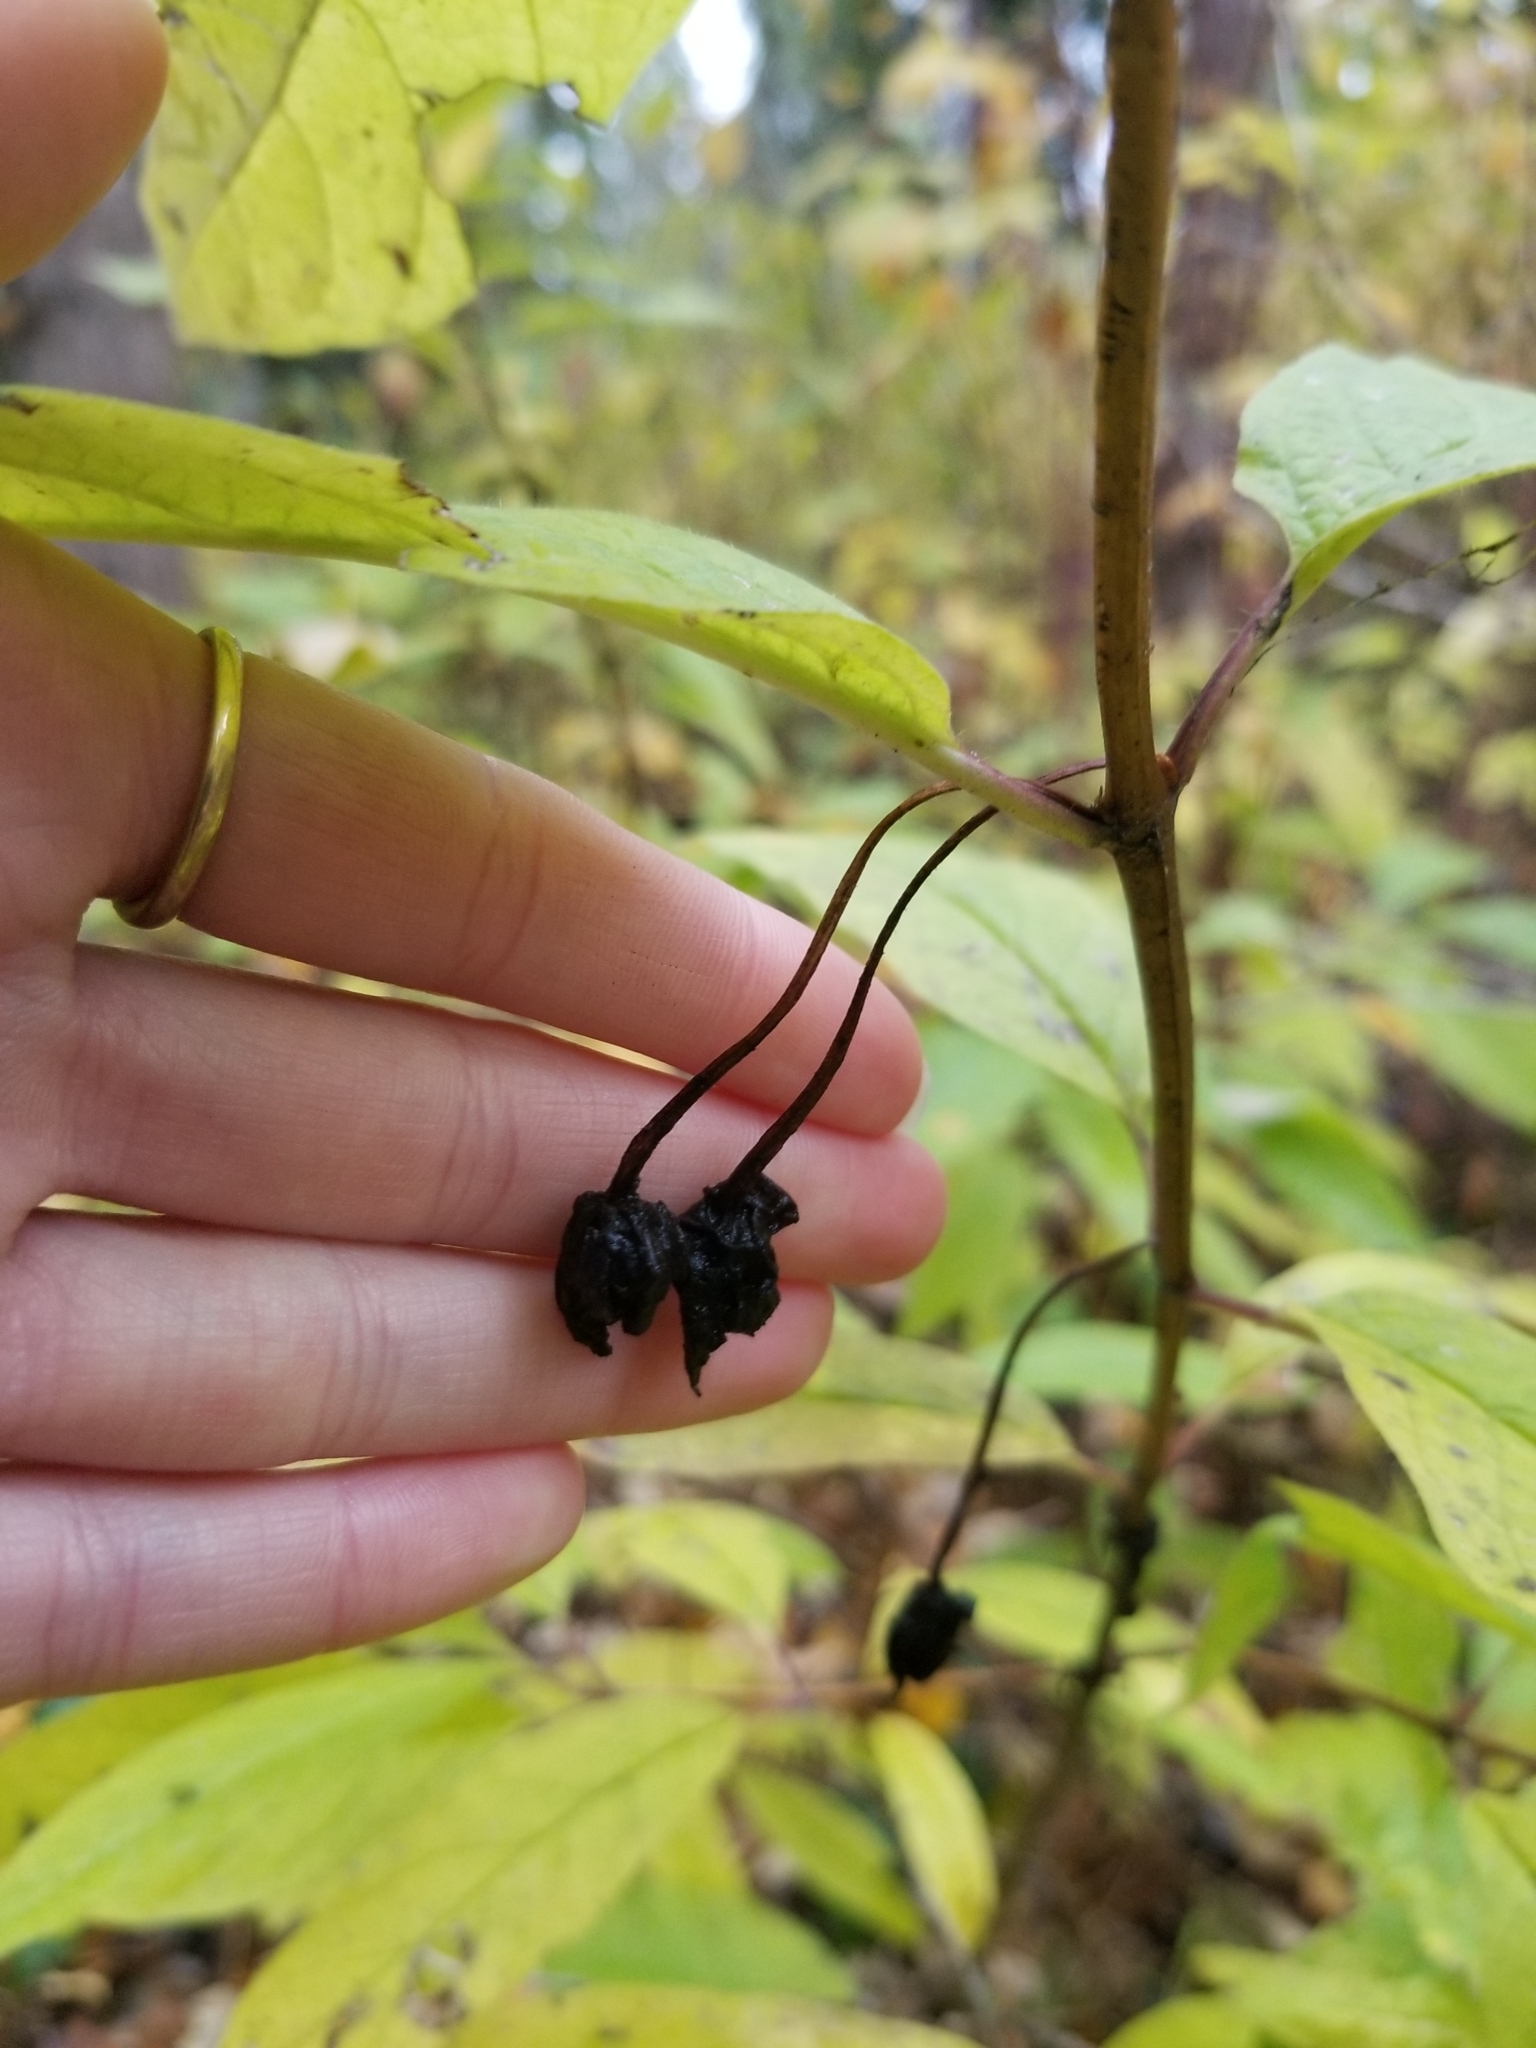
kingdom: Plantae
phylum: Tracheophyta
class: Magnoliopsida
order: Dipsacales
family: Caprifoliaceae
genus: Lonicera
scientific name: Lonicera involucrata
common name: Californian honeysuckle
